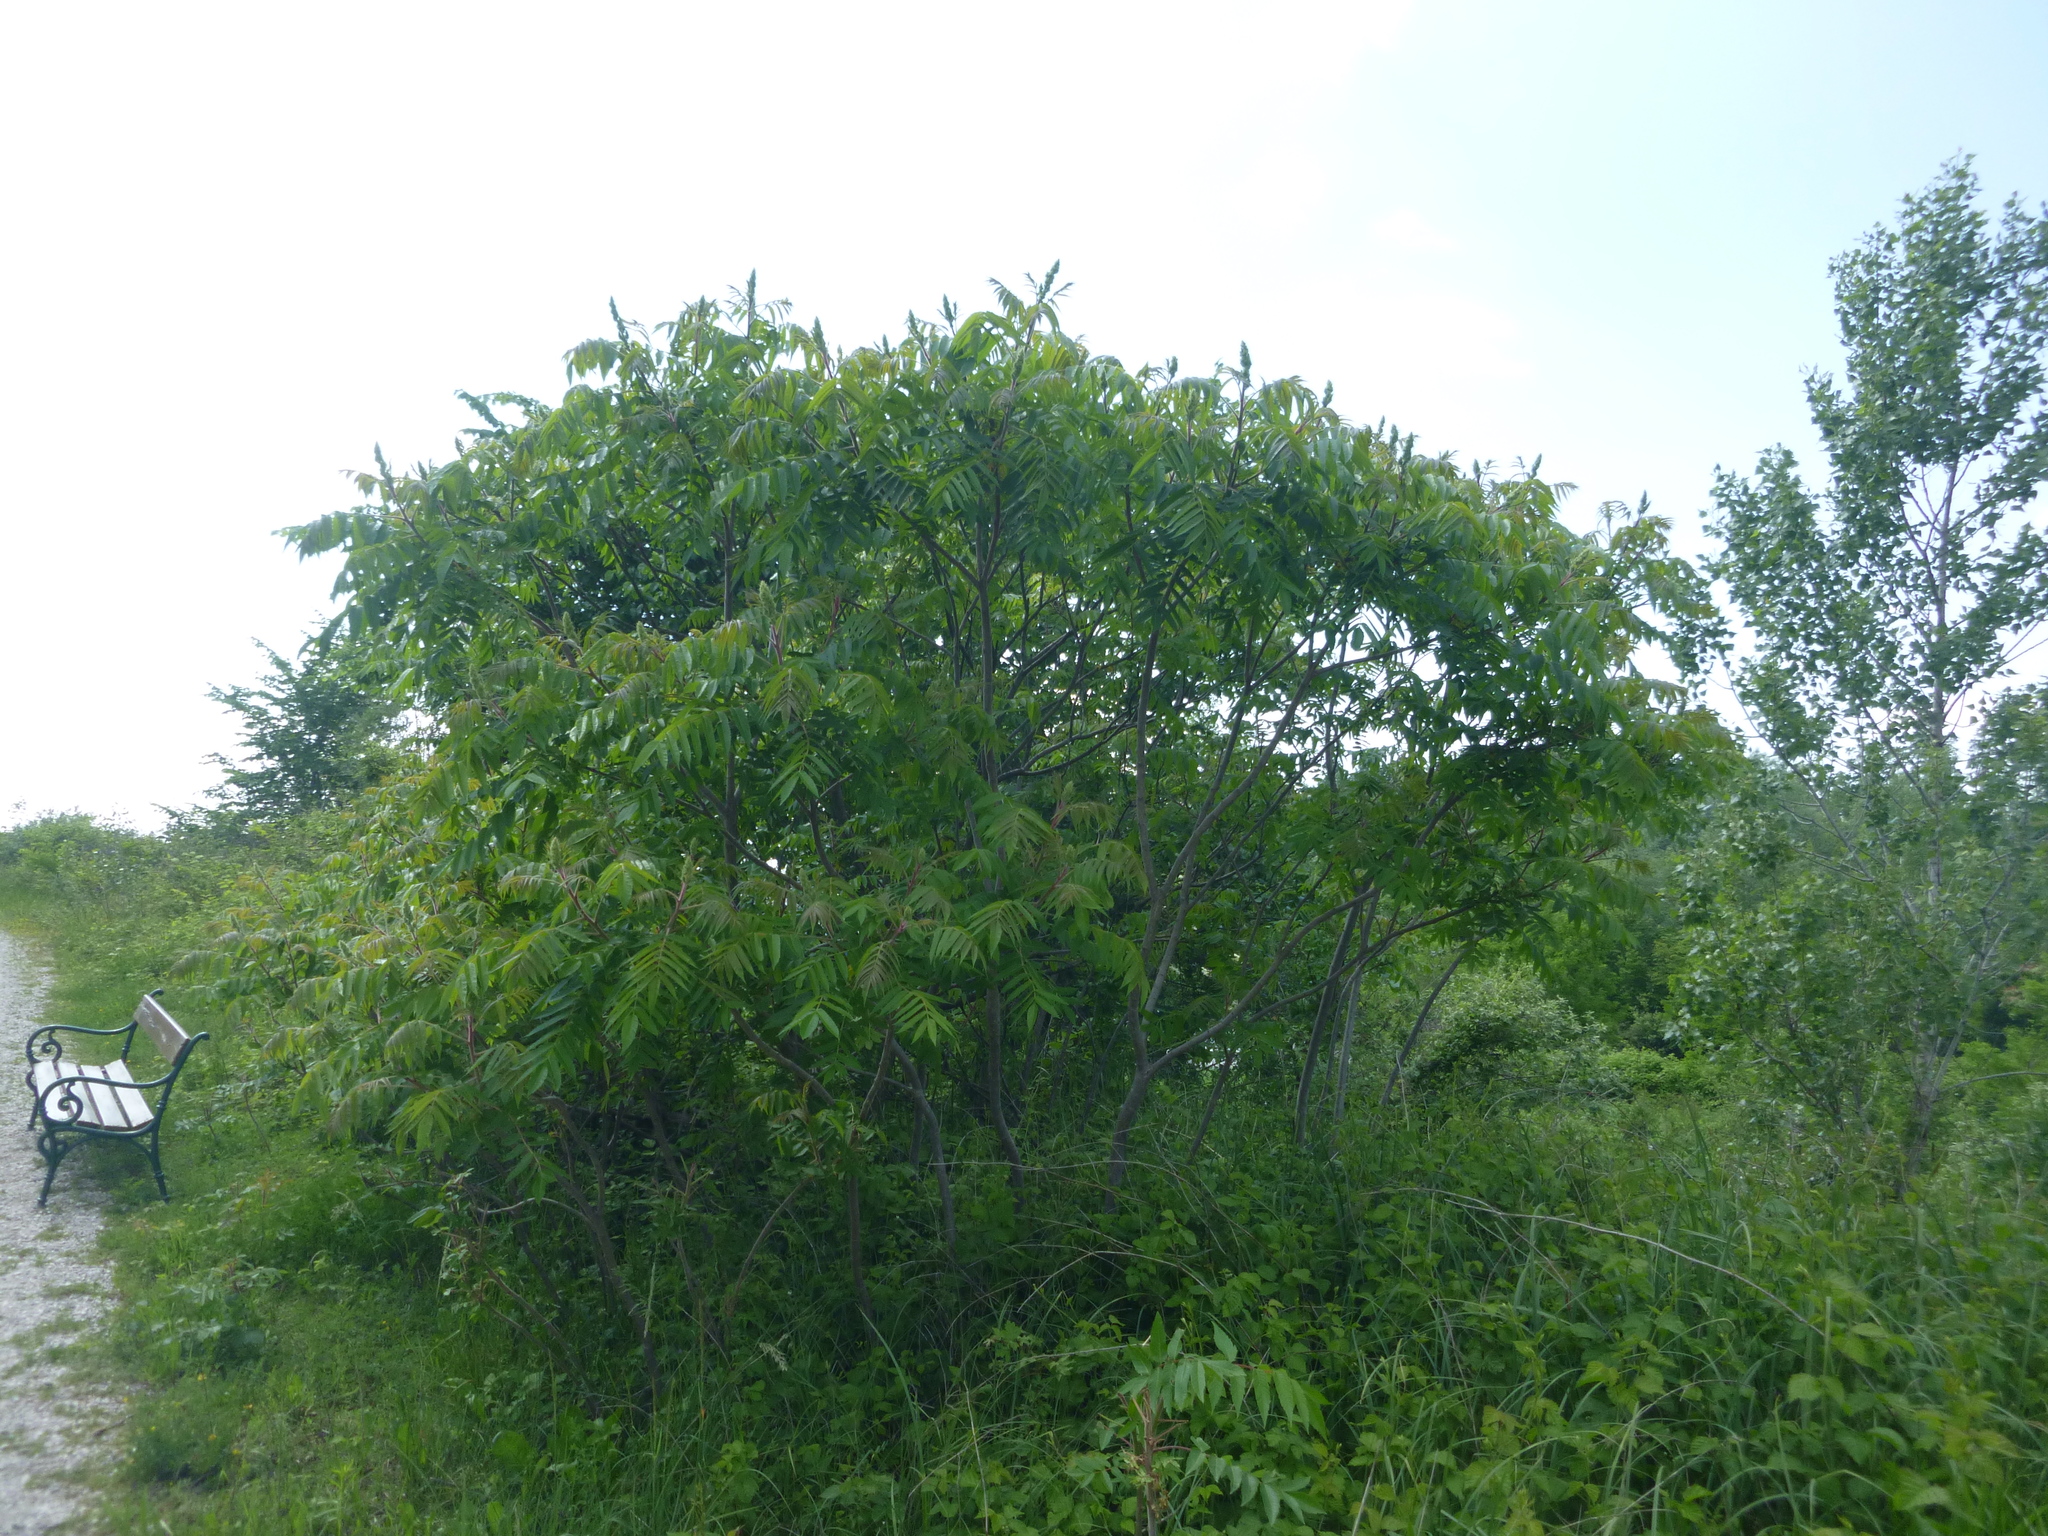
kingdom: Plantae
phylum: Tracheophyta
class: Magnoliopsida
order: Sapindales
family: Anacardiaceae
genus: Rhus
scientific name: Rhus typhina
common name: Staghorn sumac
